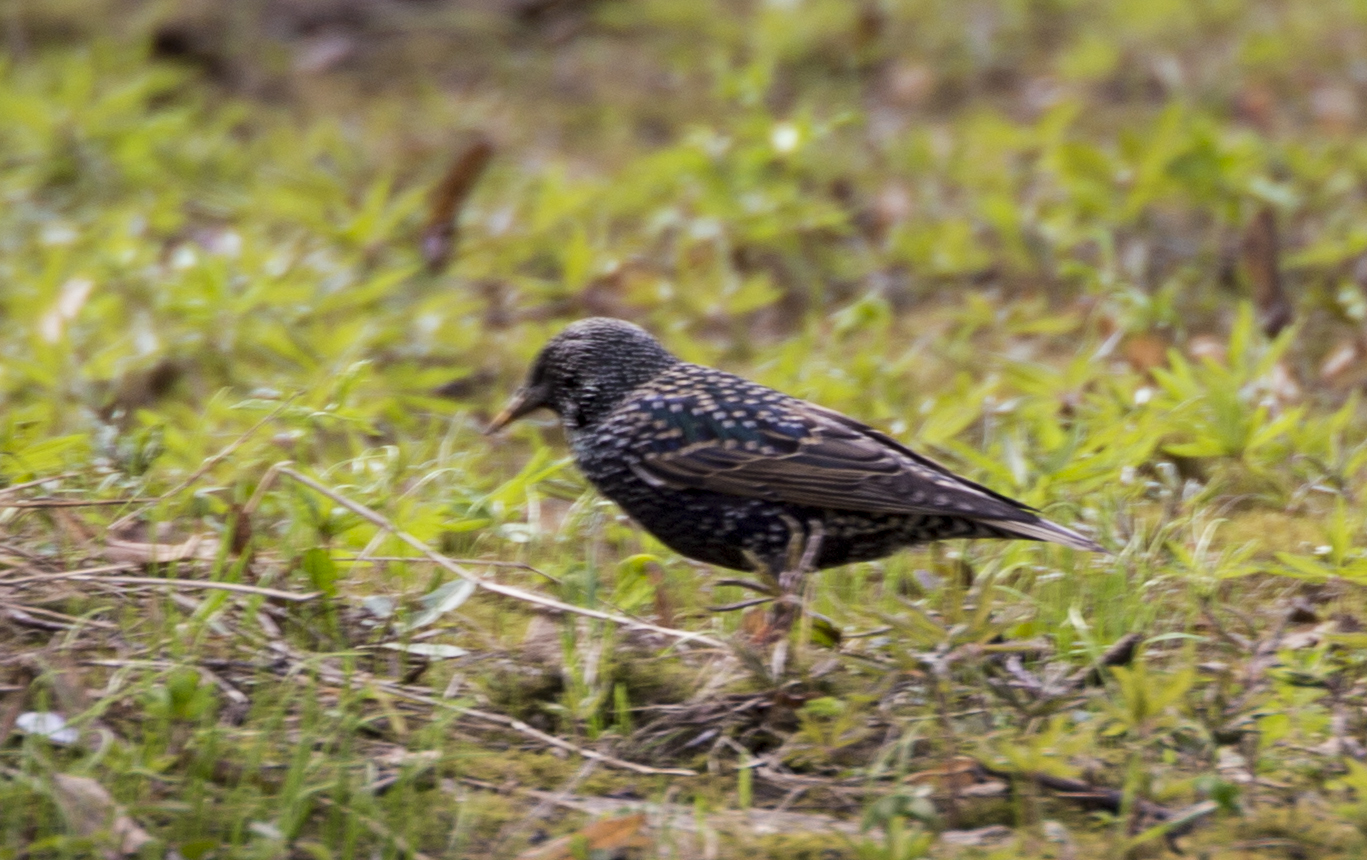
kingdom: Animalia
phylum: Chordata
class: Aves
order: Passeriformes
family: Sturnidae
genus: Sturnus
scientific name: Sturnus vulgaris
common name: Common starling
